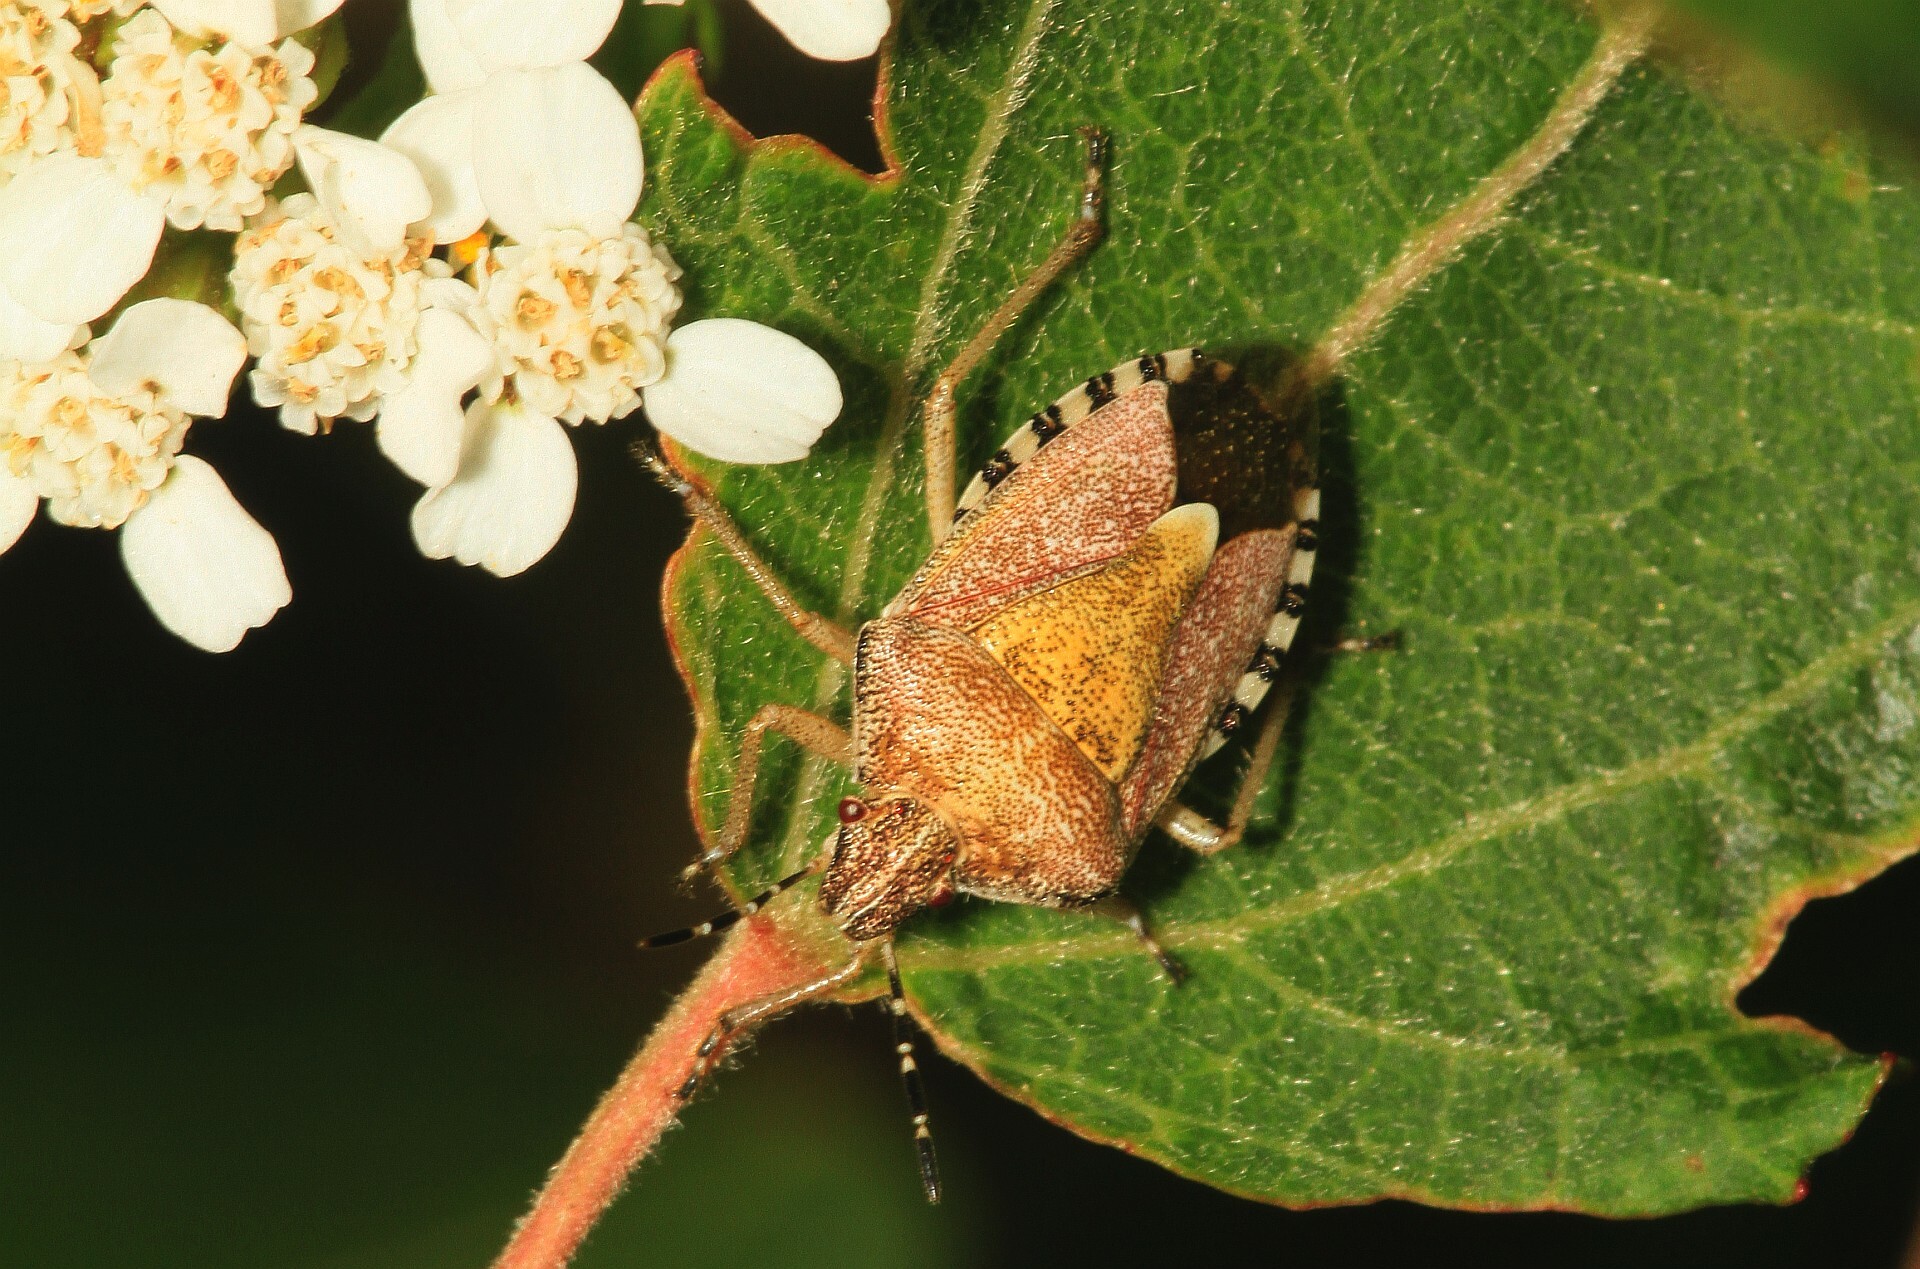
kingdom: Animalia
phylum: Arthropoda
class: Insecta
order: Hemiptera
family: Pentatomidae
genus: Dolycoris
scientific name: Dolycoris baccarum
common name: Sloe bug
